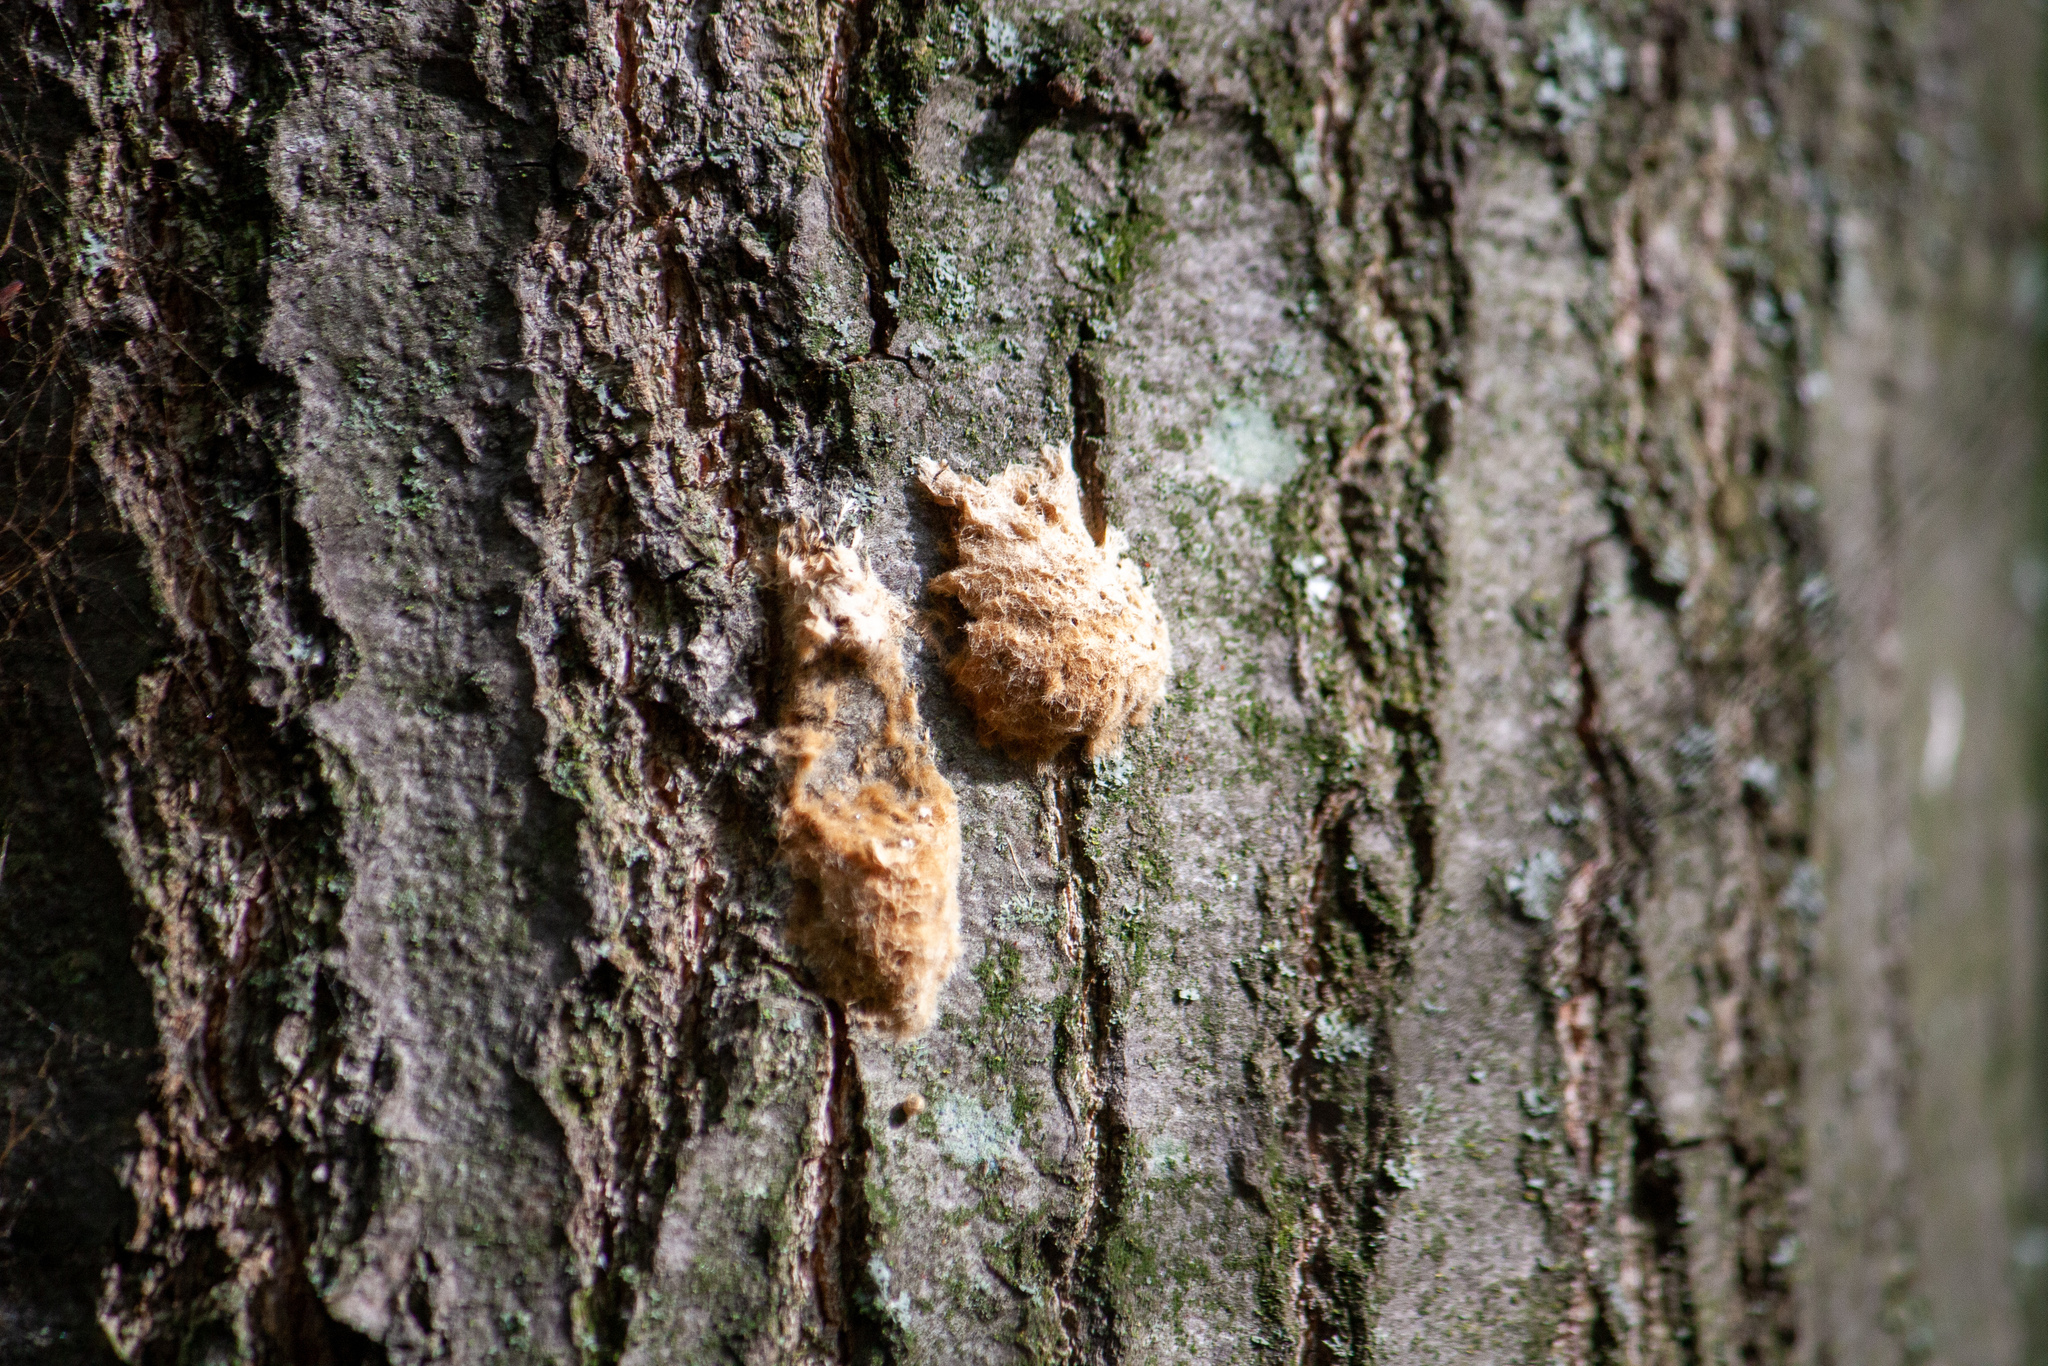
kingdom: Animalia
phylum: Arthropoda
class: Insecta
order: Lepidoptera
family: Erebidae
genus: Lymantria
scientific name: Lymantria dispar
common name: Gypsy moth
